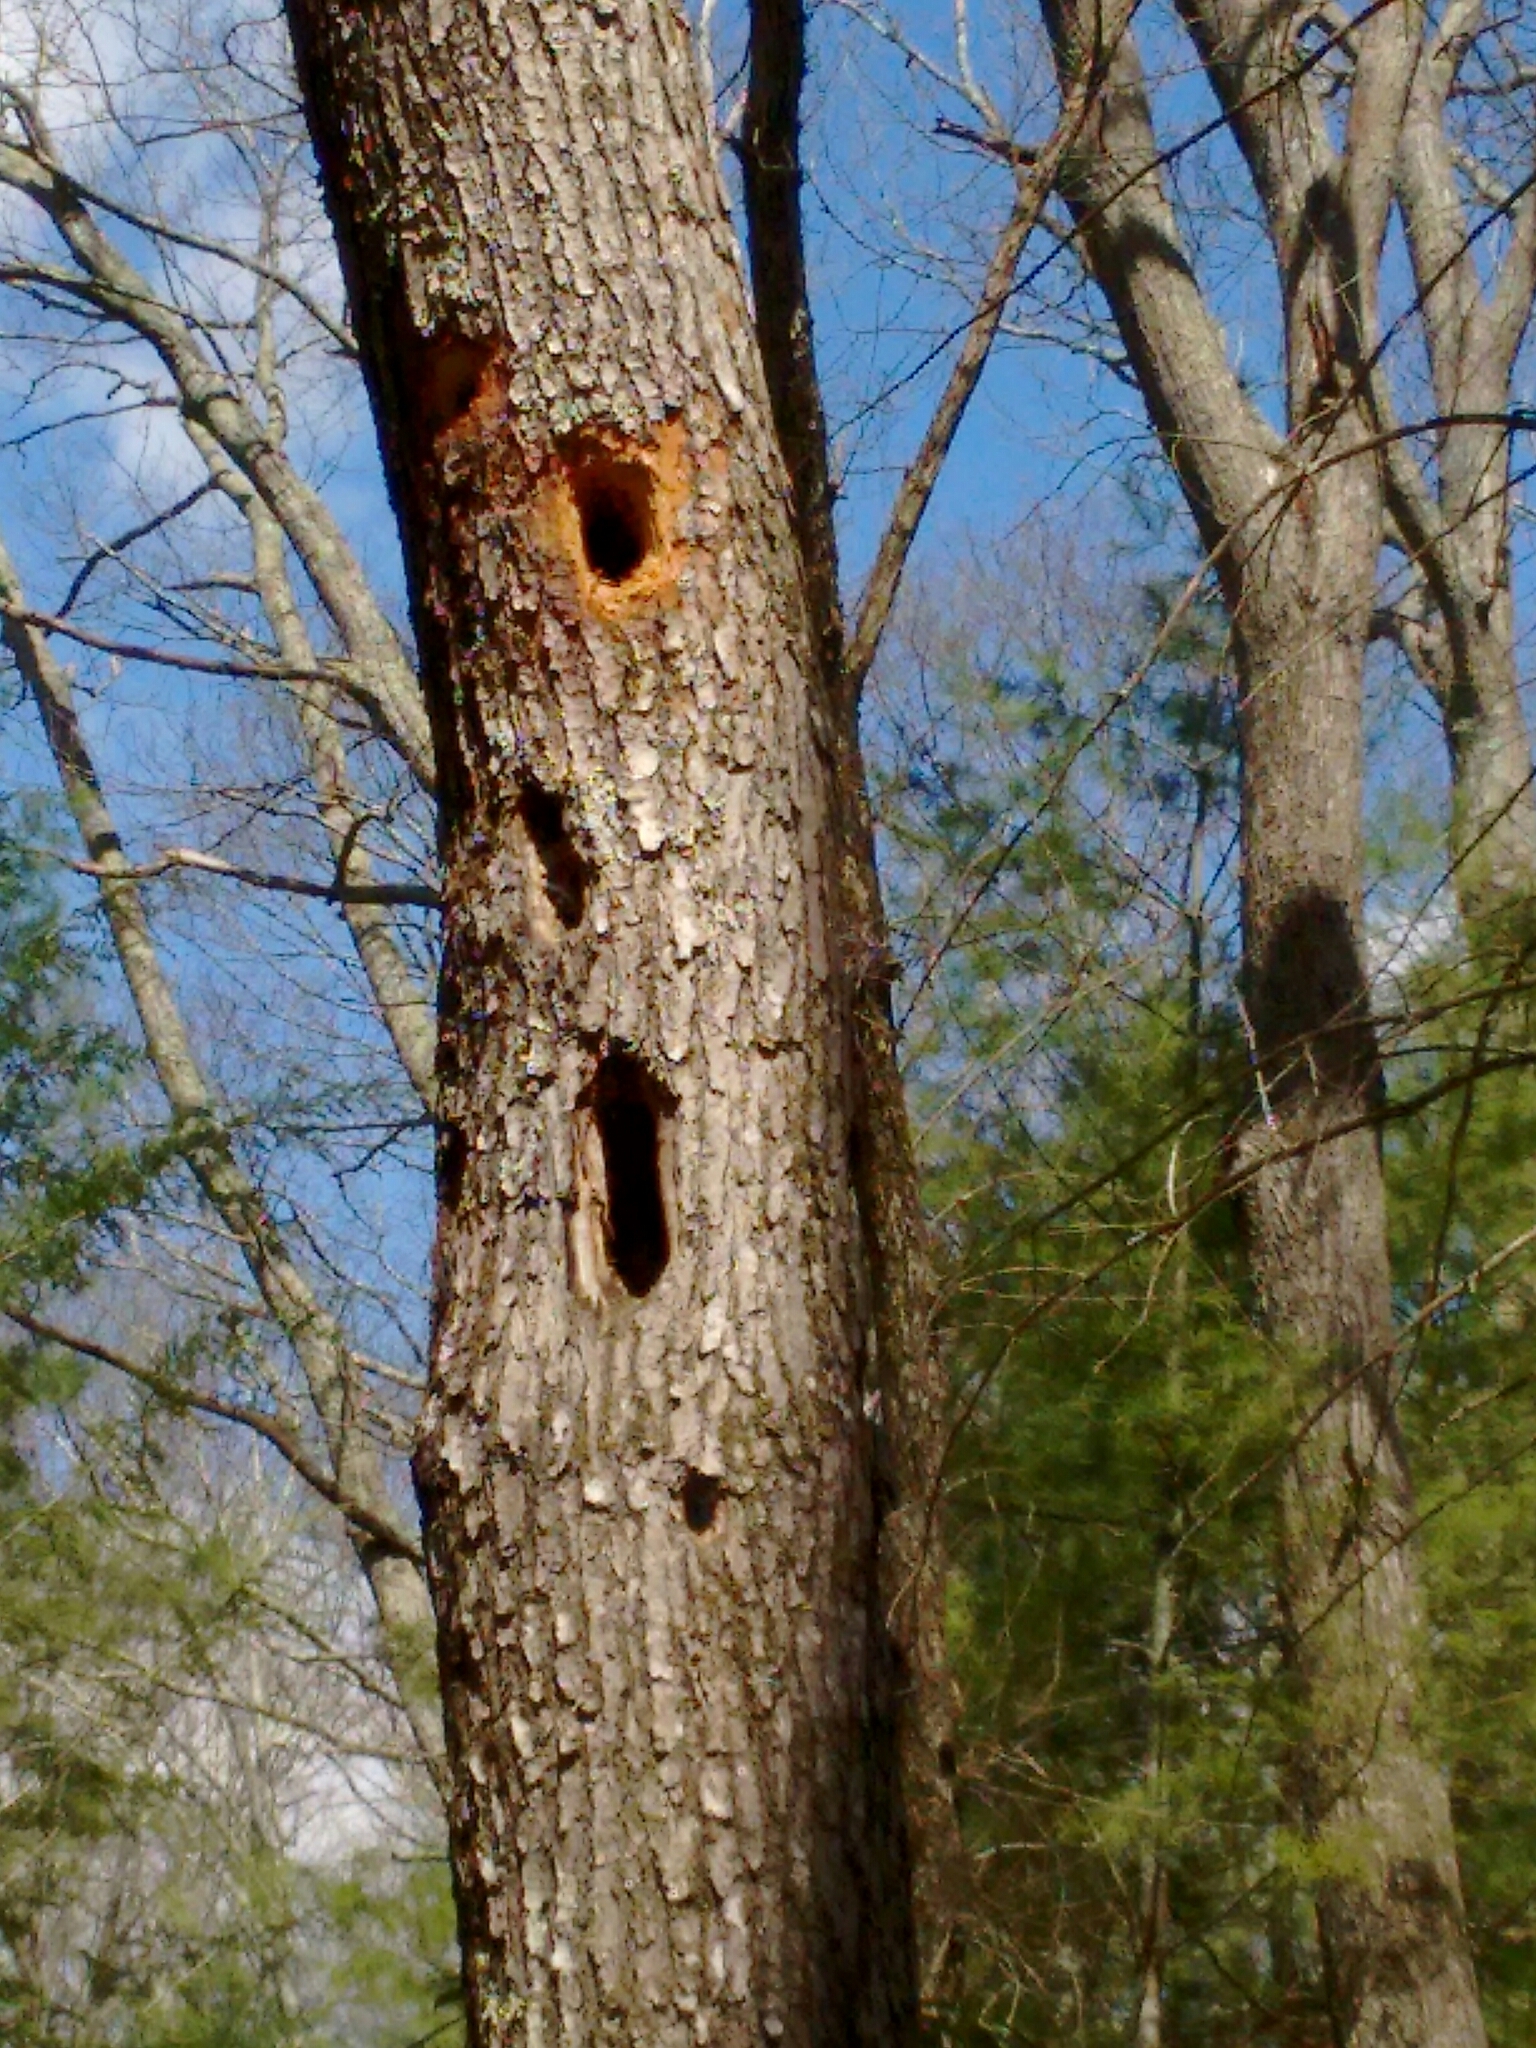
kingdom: Animalia
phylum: Chordata
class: Aves
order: Piciformes
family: Picidae
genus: Dryocopus
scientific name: Dryocopus pileatus
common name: Pileated woodpecker
